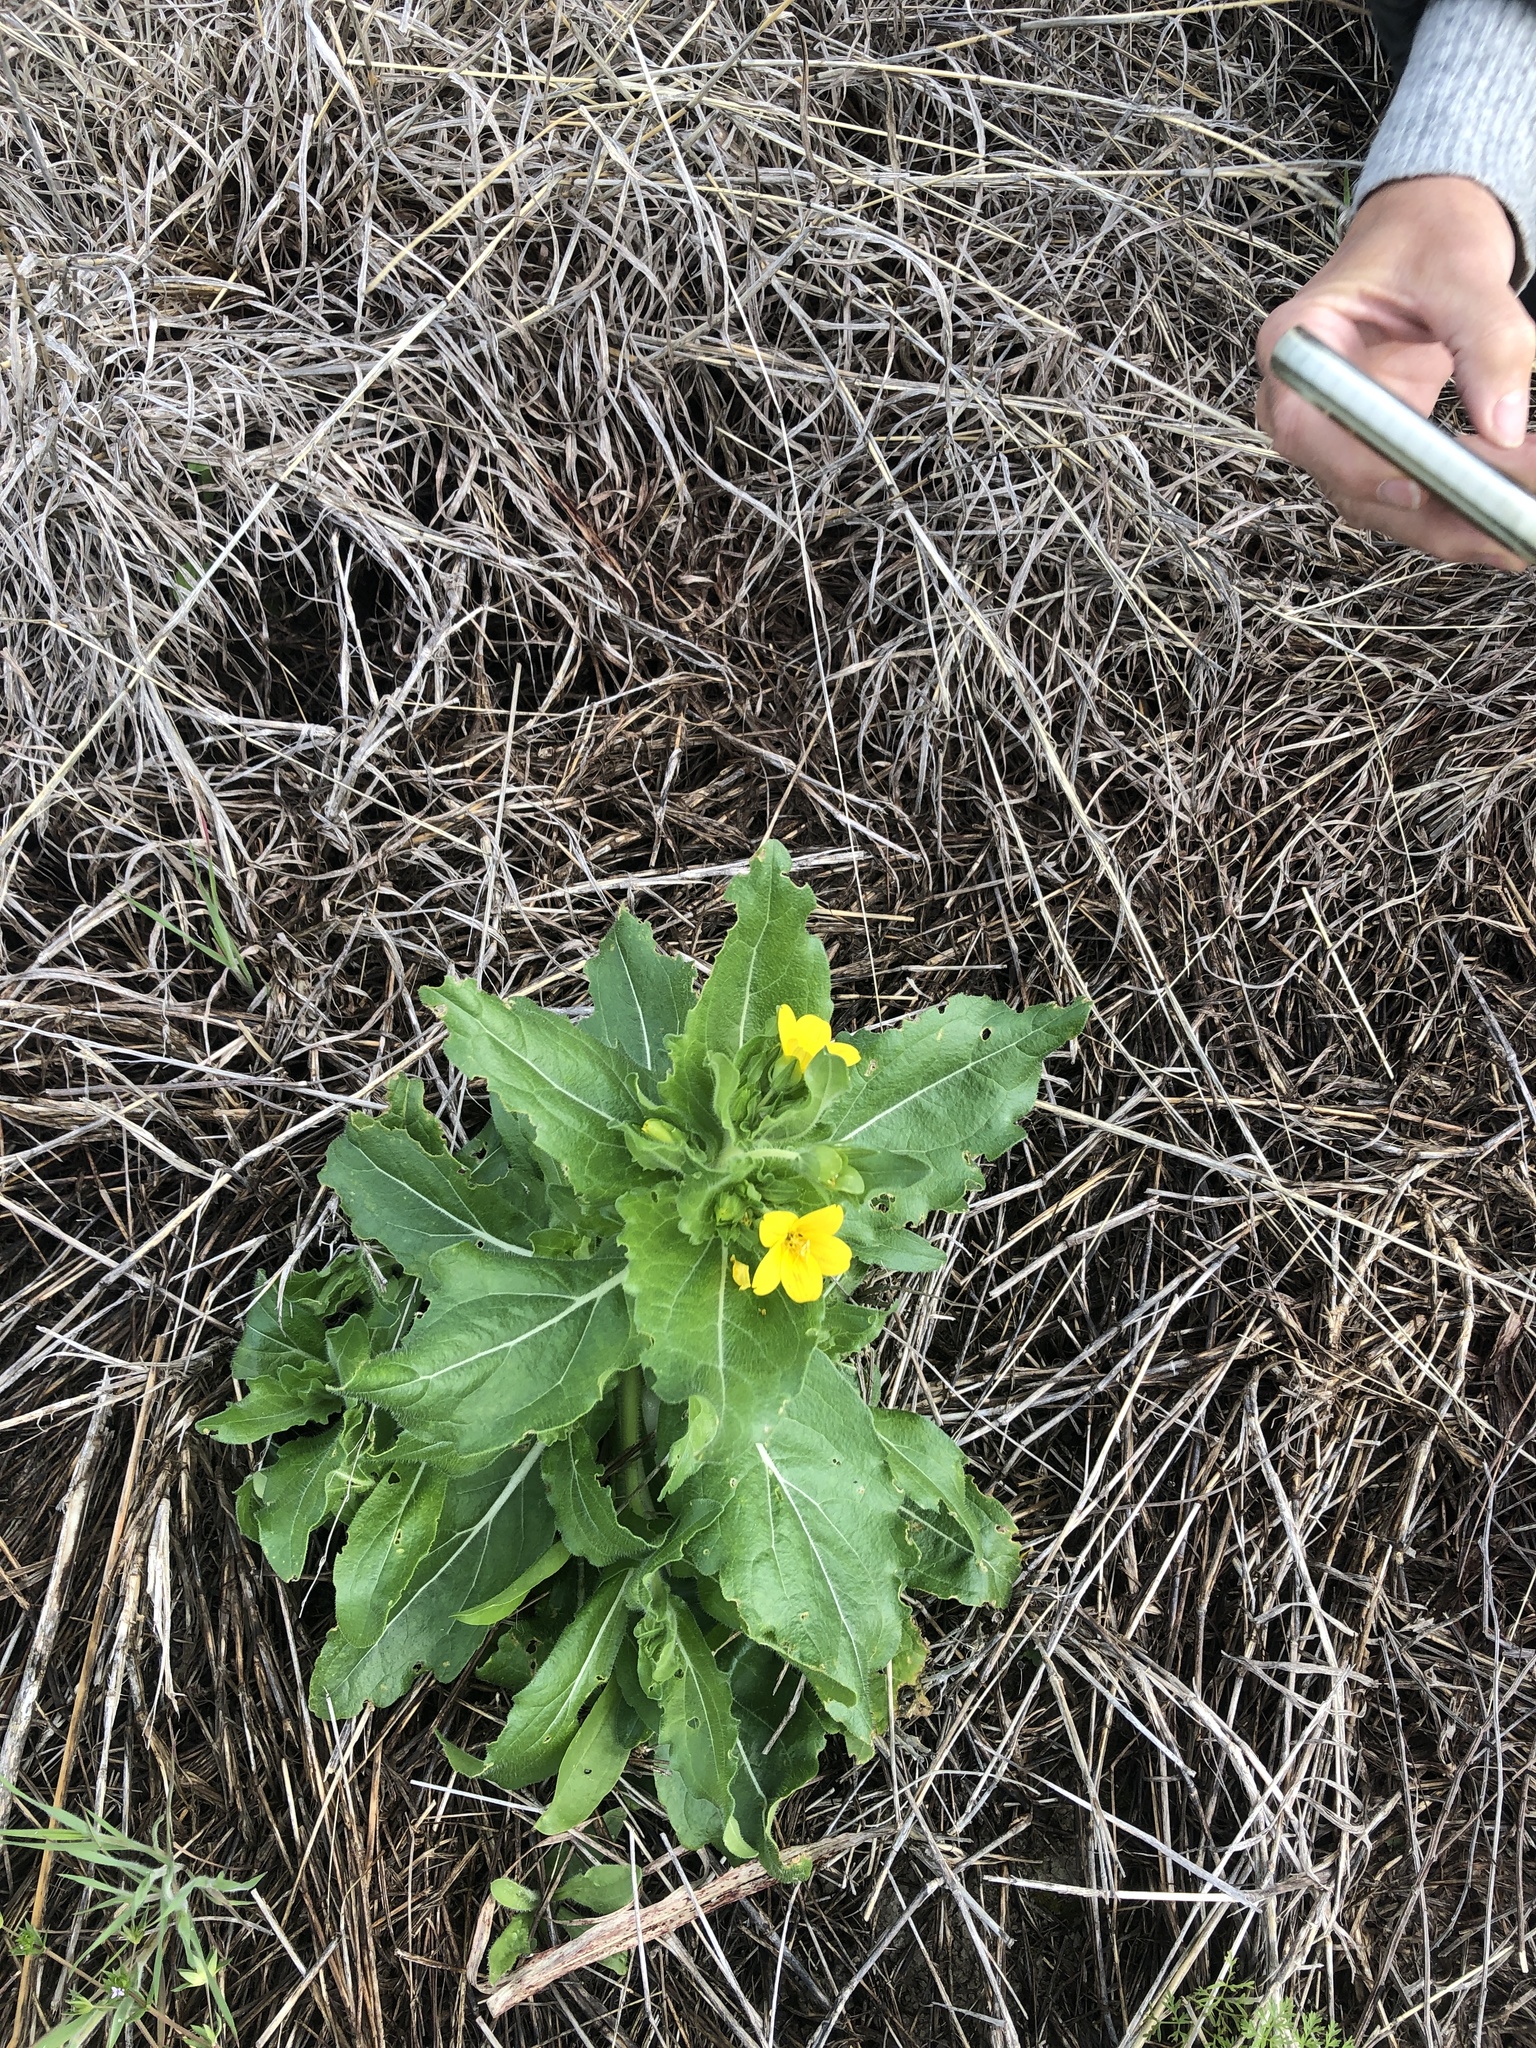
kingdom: Plantae
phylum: Tracheophyta
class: Magnoliopsida
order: Asterales
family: Asteraceae
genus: Lindheimera
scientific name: Lindheimera texana
